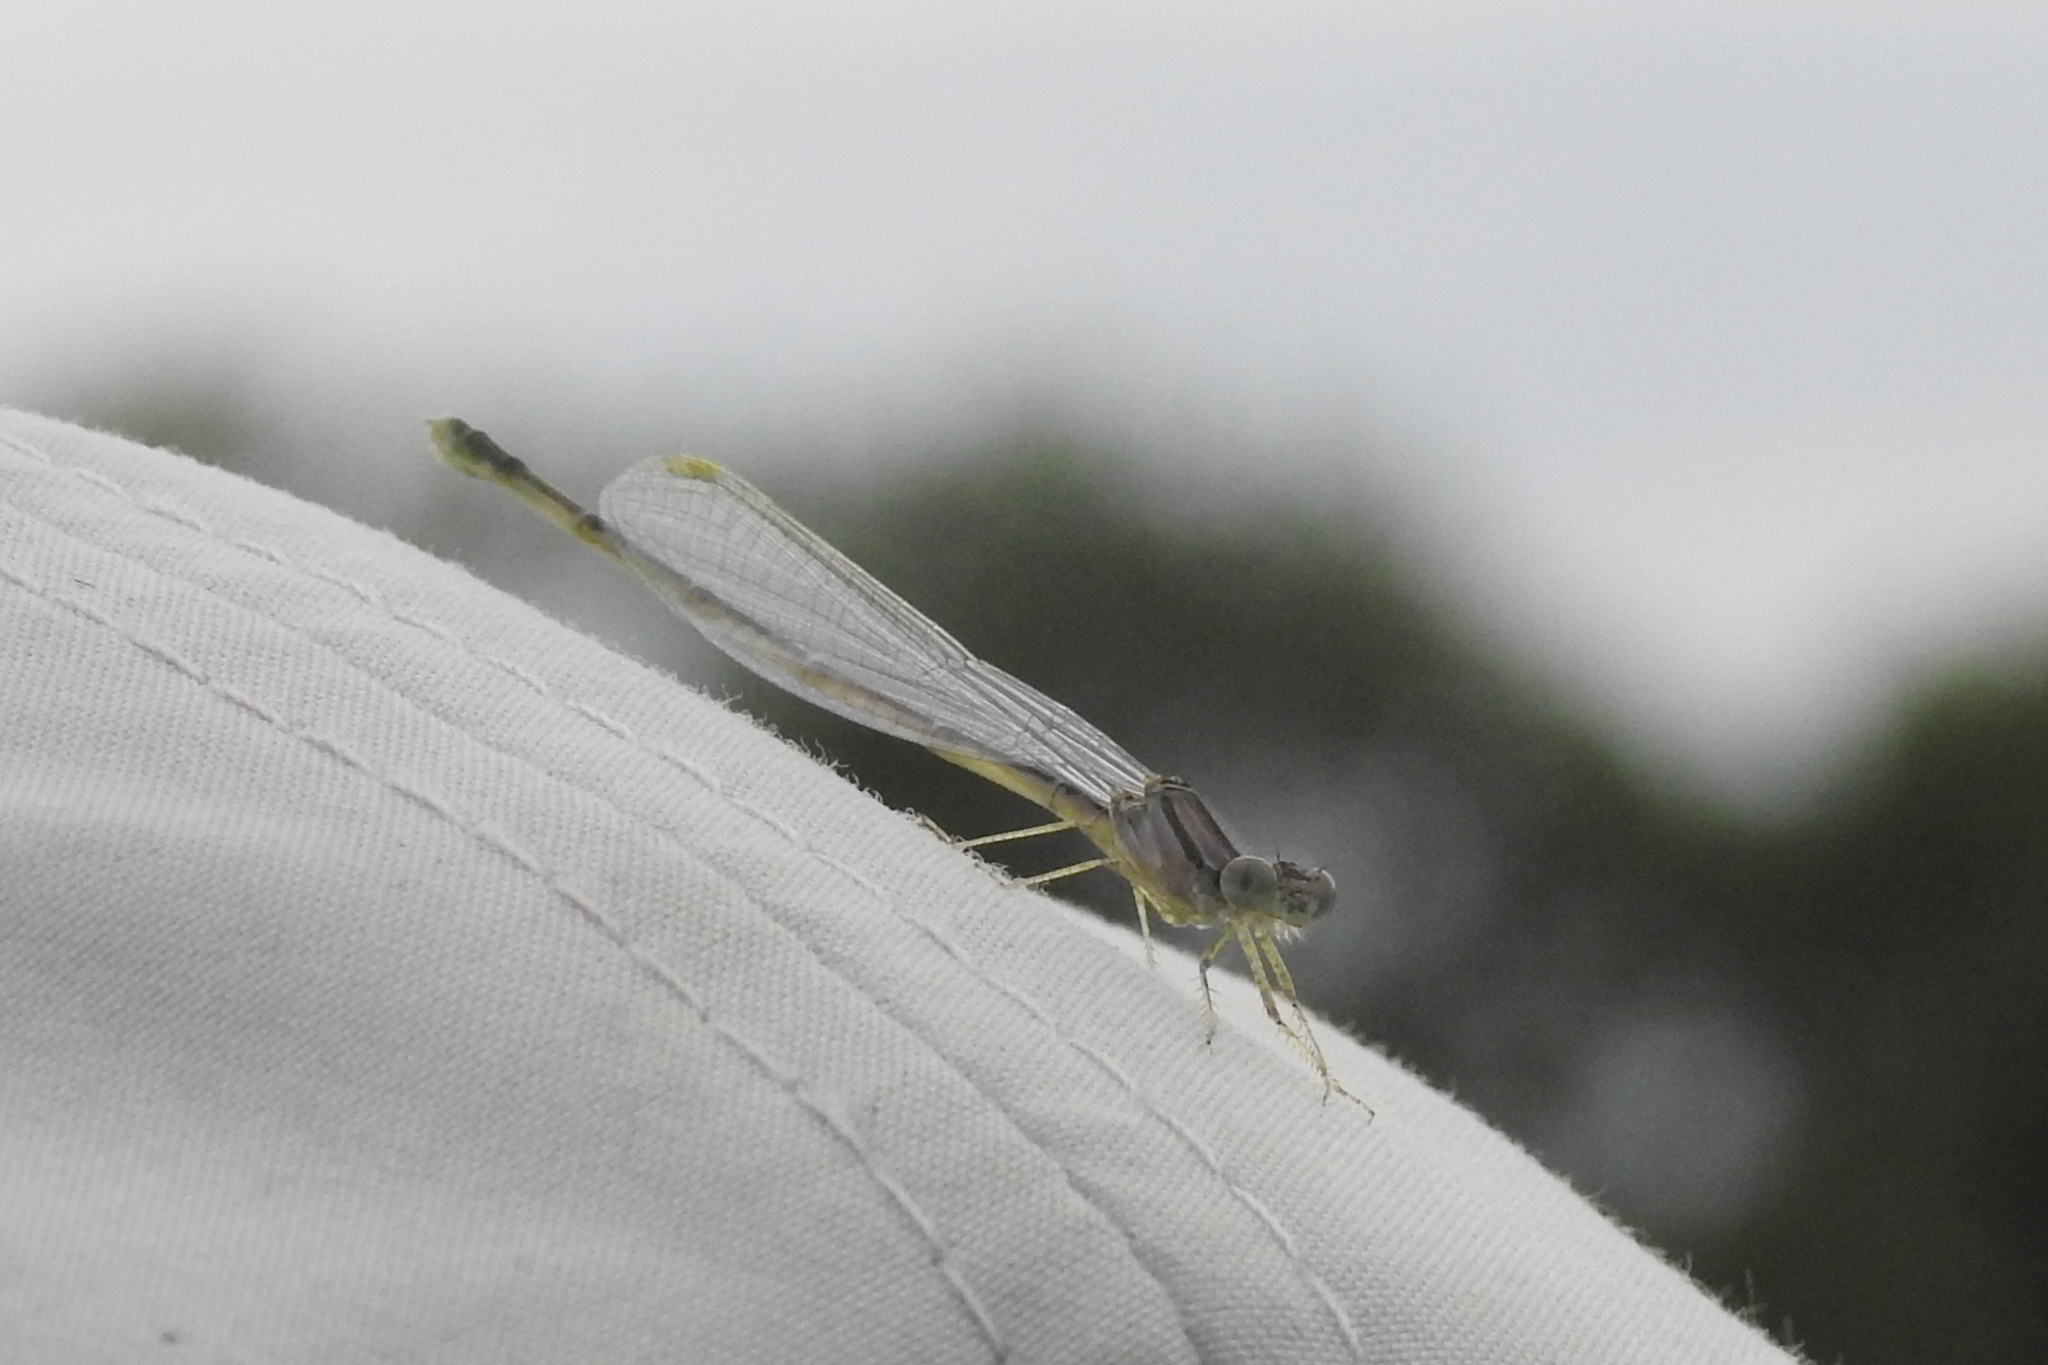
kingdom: Animalia
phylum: Arthropoda
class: Insecta
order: Odonata
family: Coenagrionidae
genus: Enallagma
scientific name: Enallagma signatum
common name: Orange bluet
